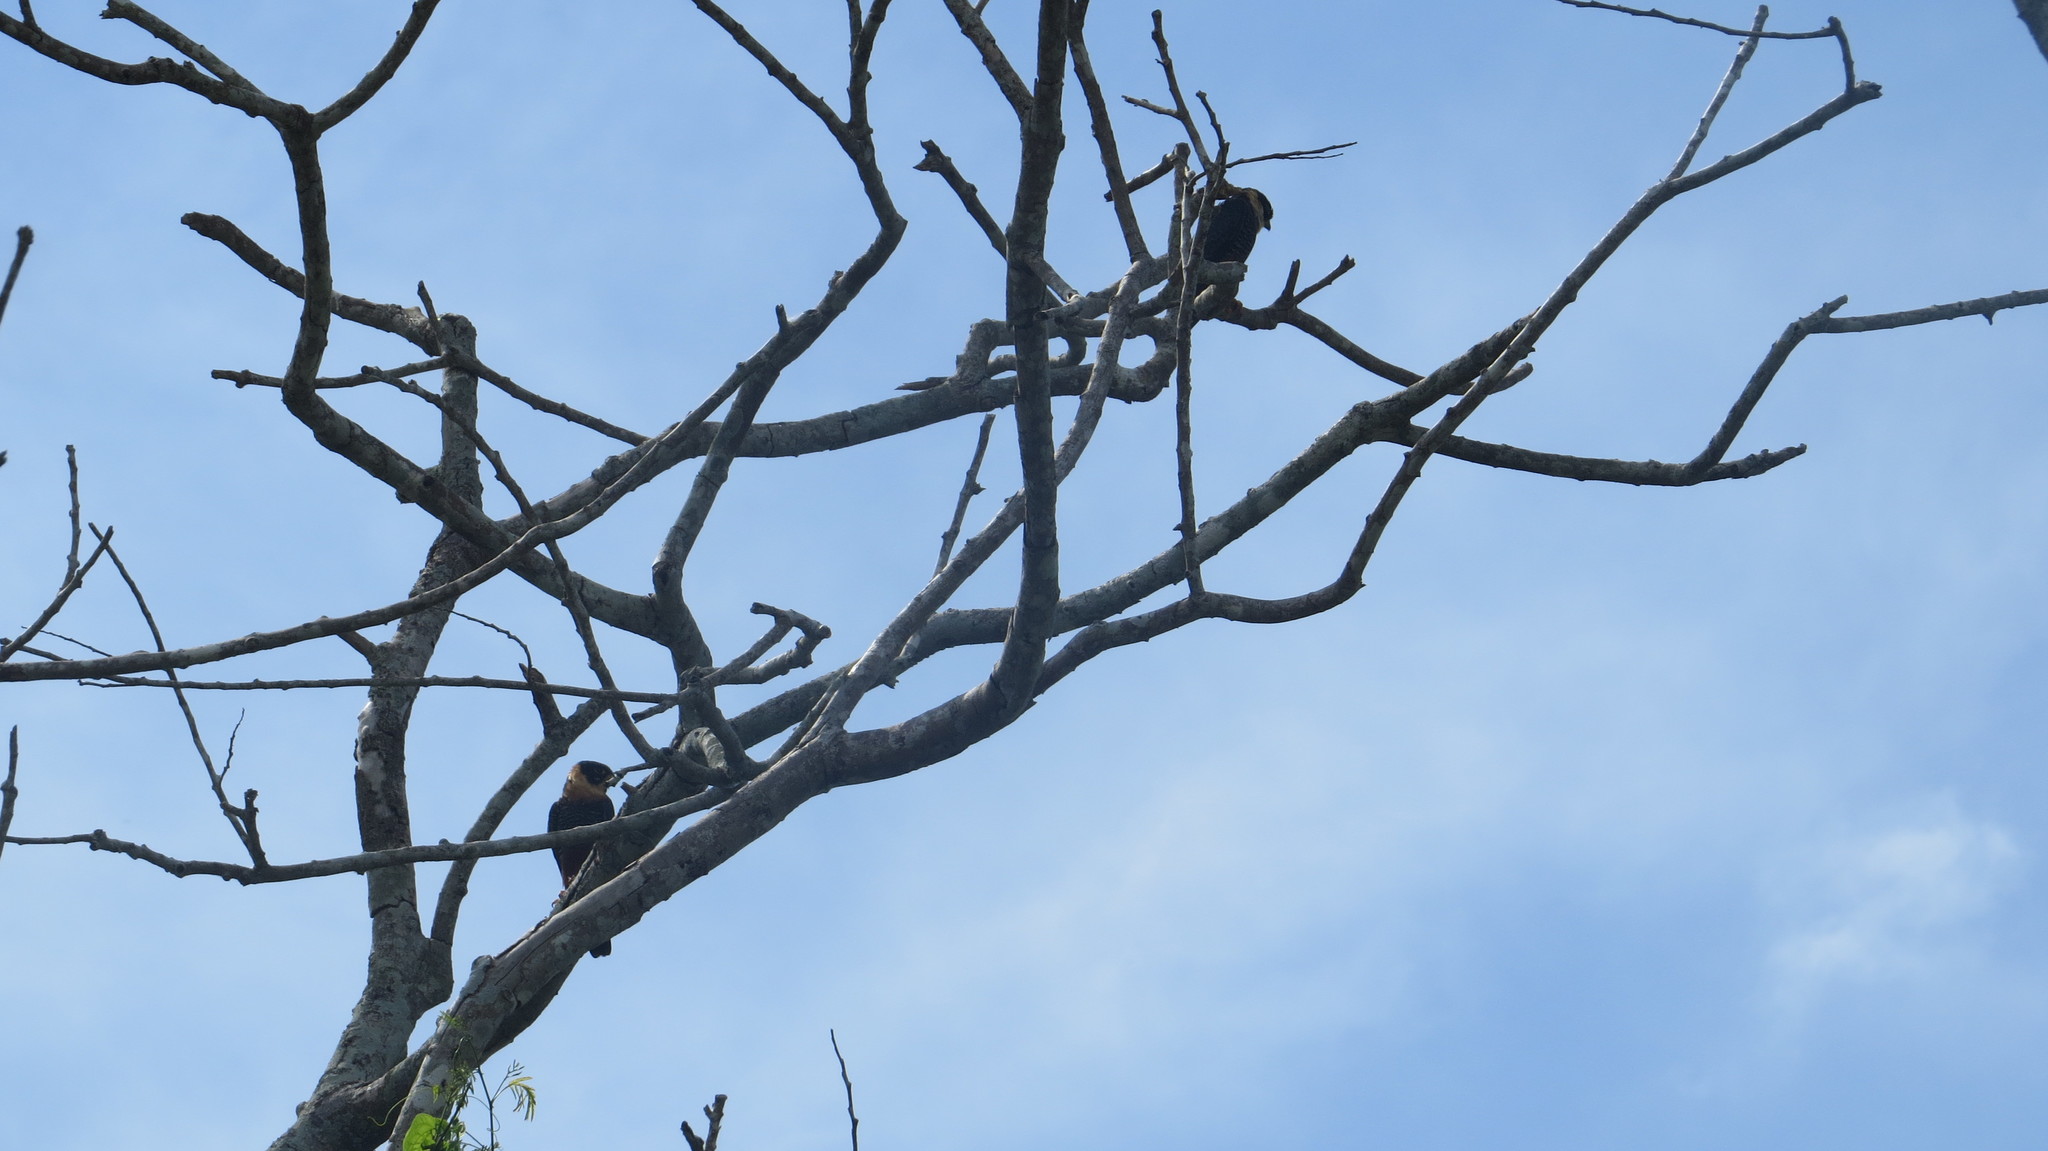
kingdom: Animalia
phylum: Chordata
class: Aves
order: Falconiformes
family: Falconidae
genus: Falco
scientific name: Falco rufigularis
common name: Bat falcon
